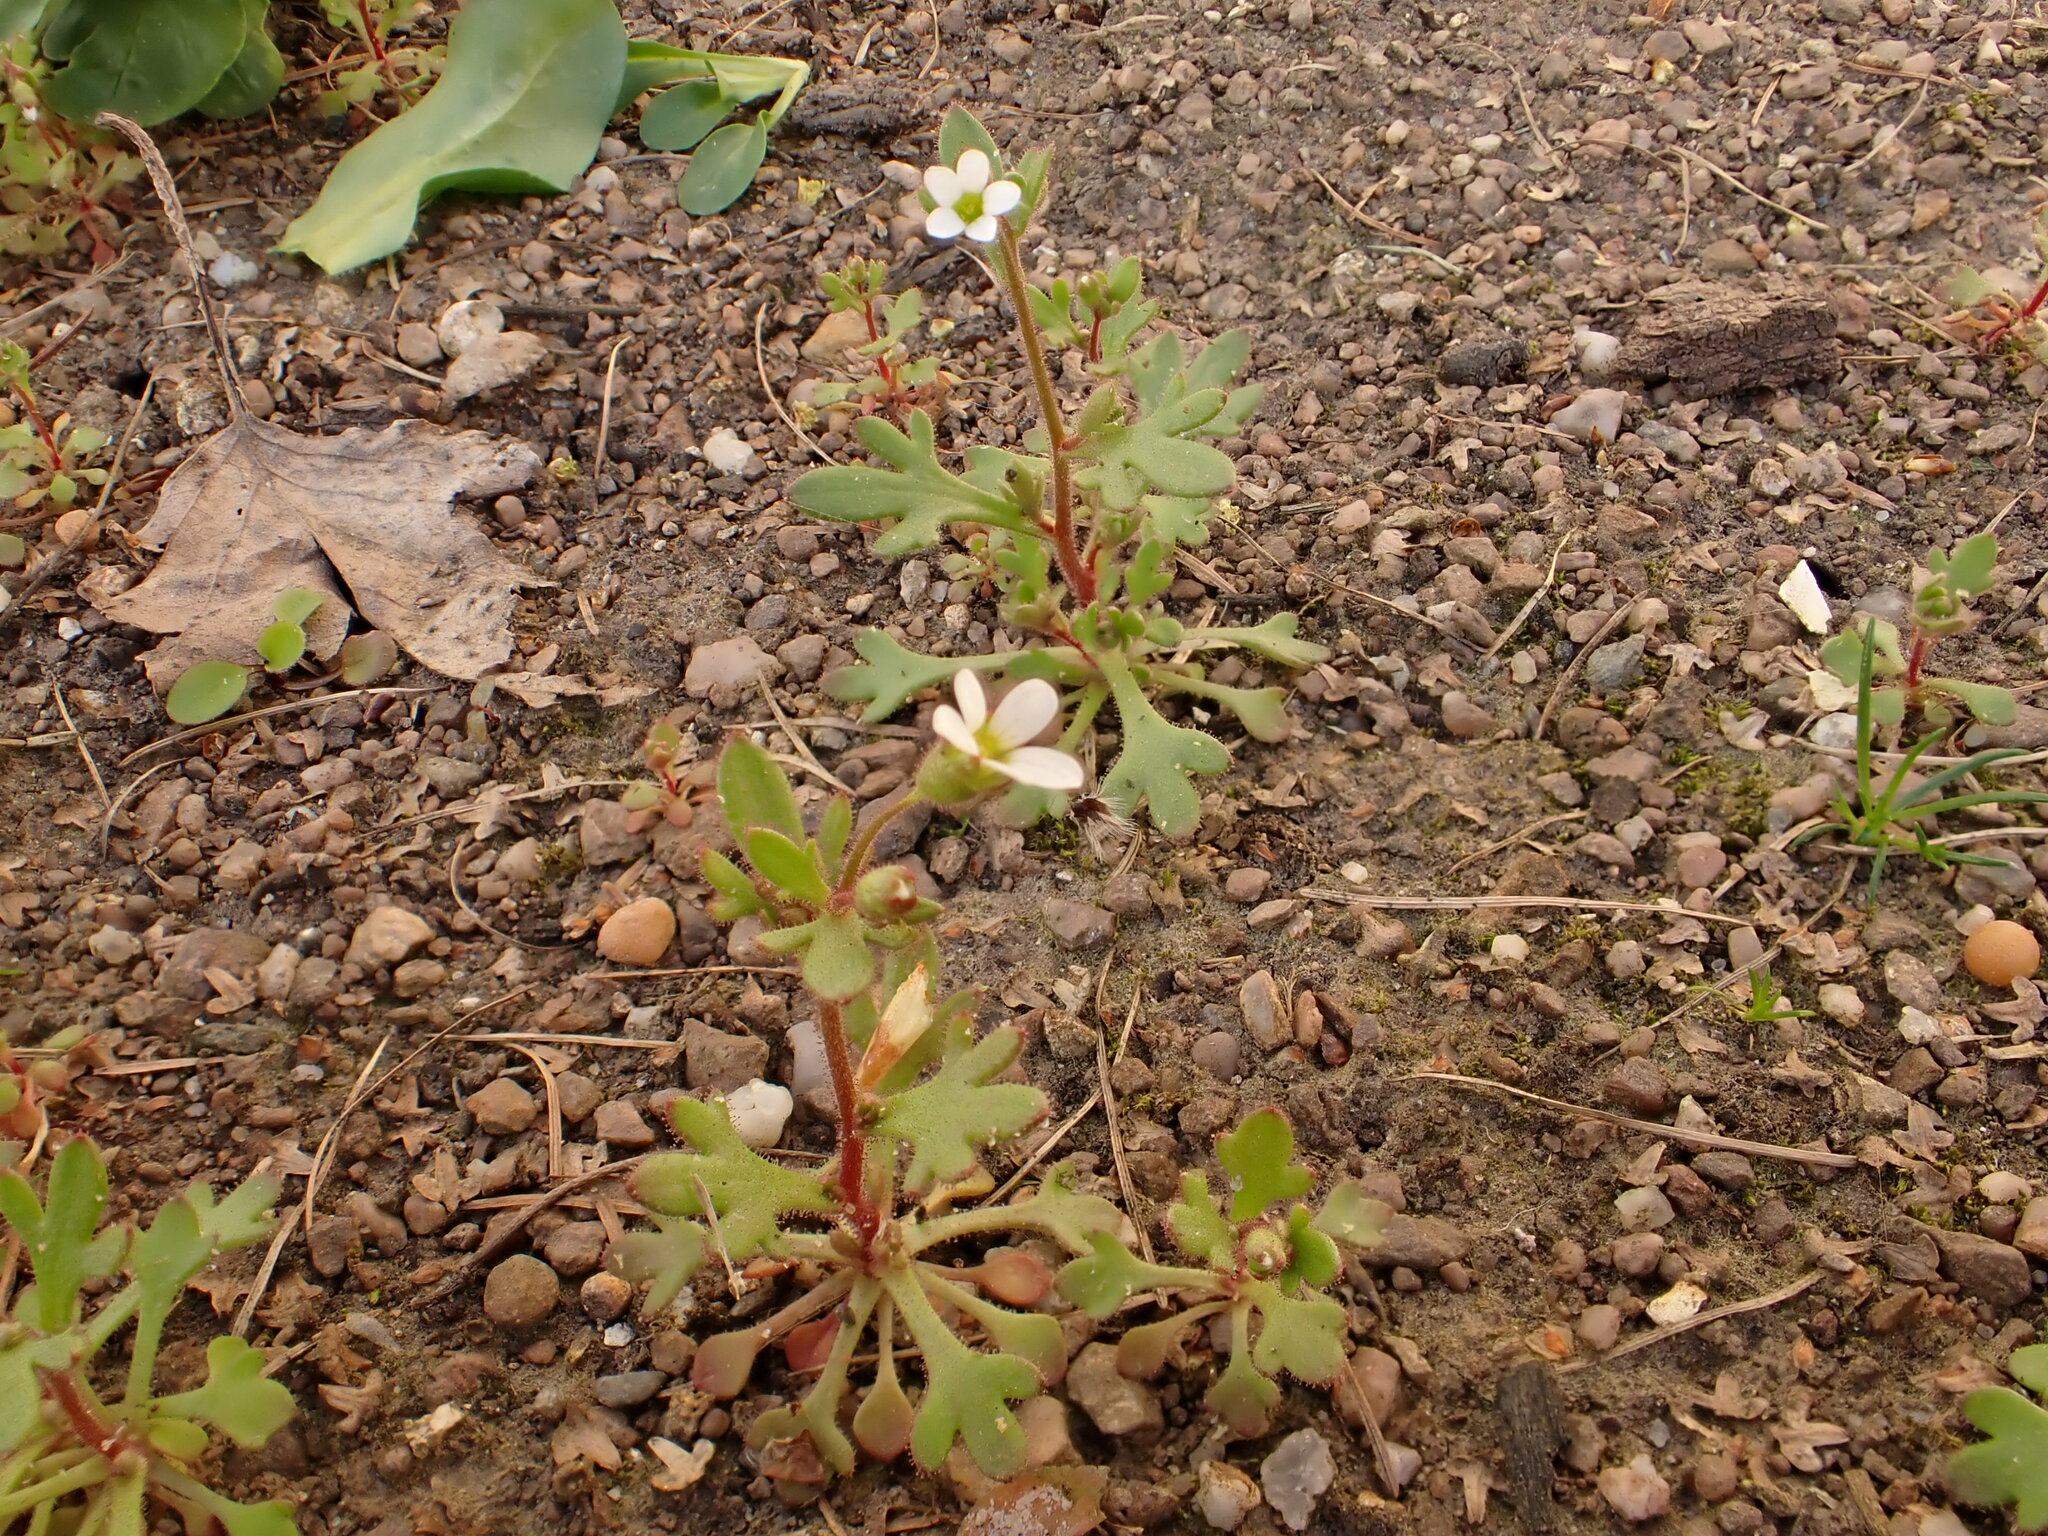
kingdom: Plantae
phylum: Tracheophyta
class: Magnoliopsida
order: Saxifragales
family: Saxifragaceae
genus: Saxifraga
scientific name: Saxifraga tridactylites
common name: Rue-leaved saxifrage
